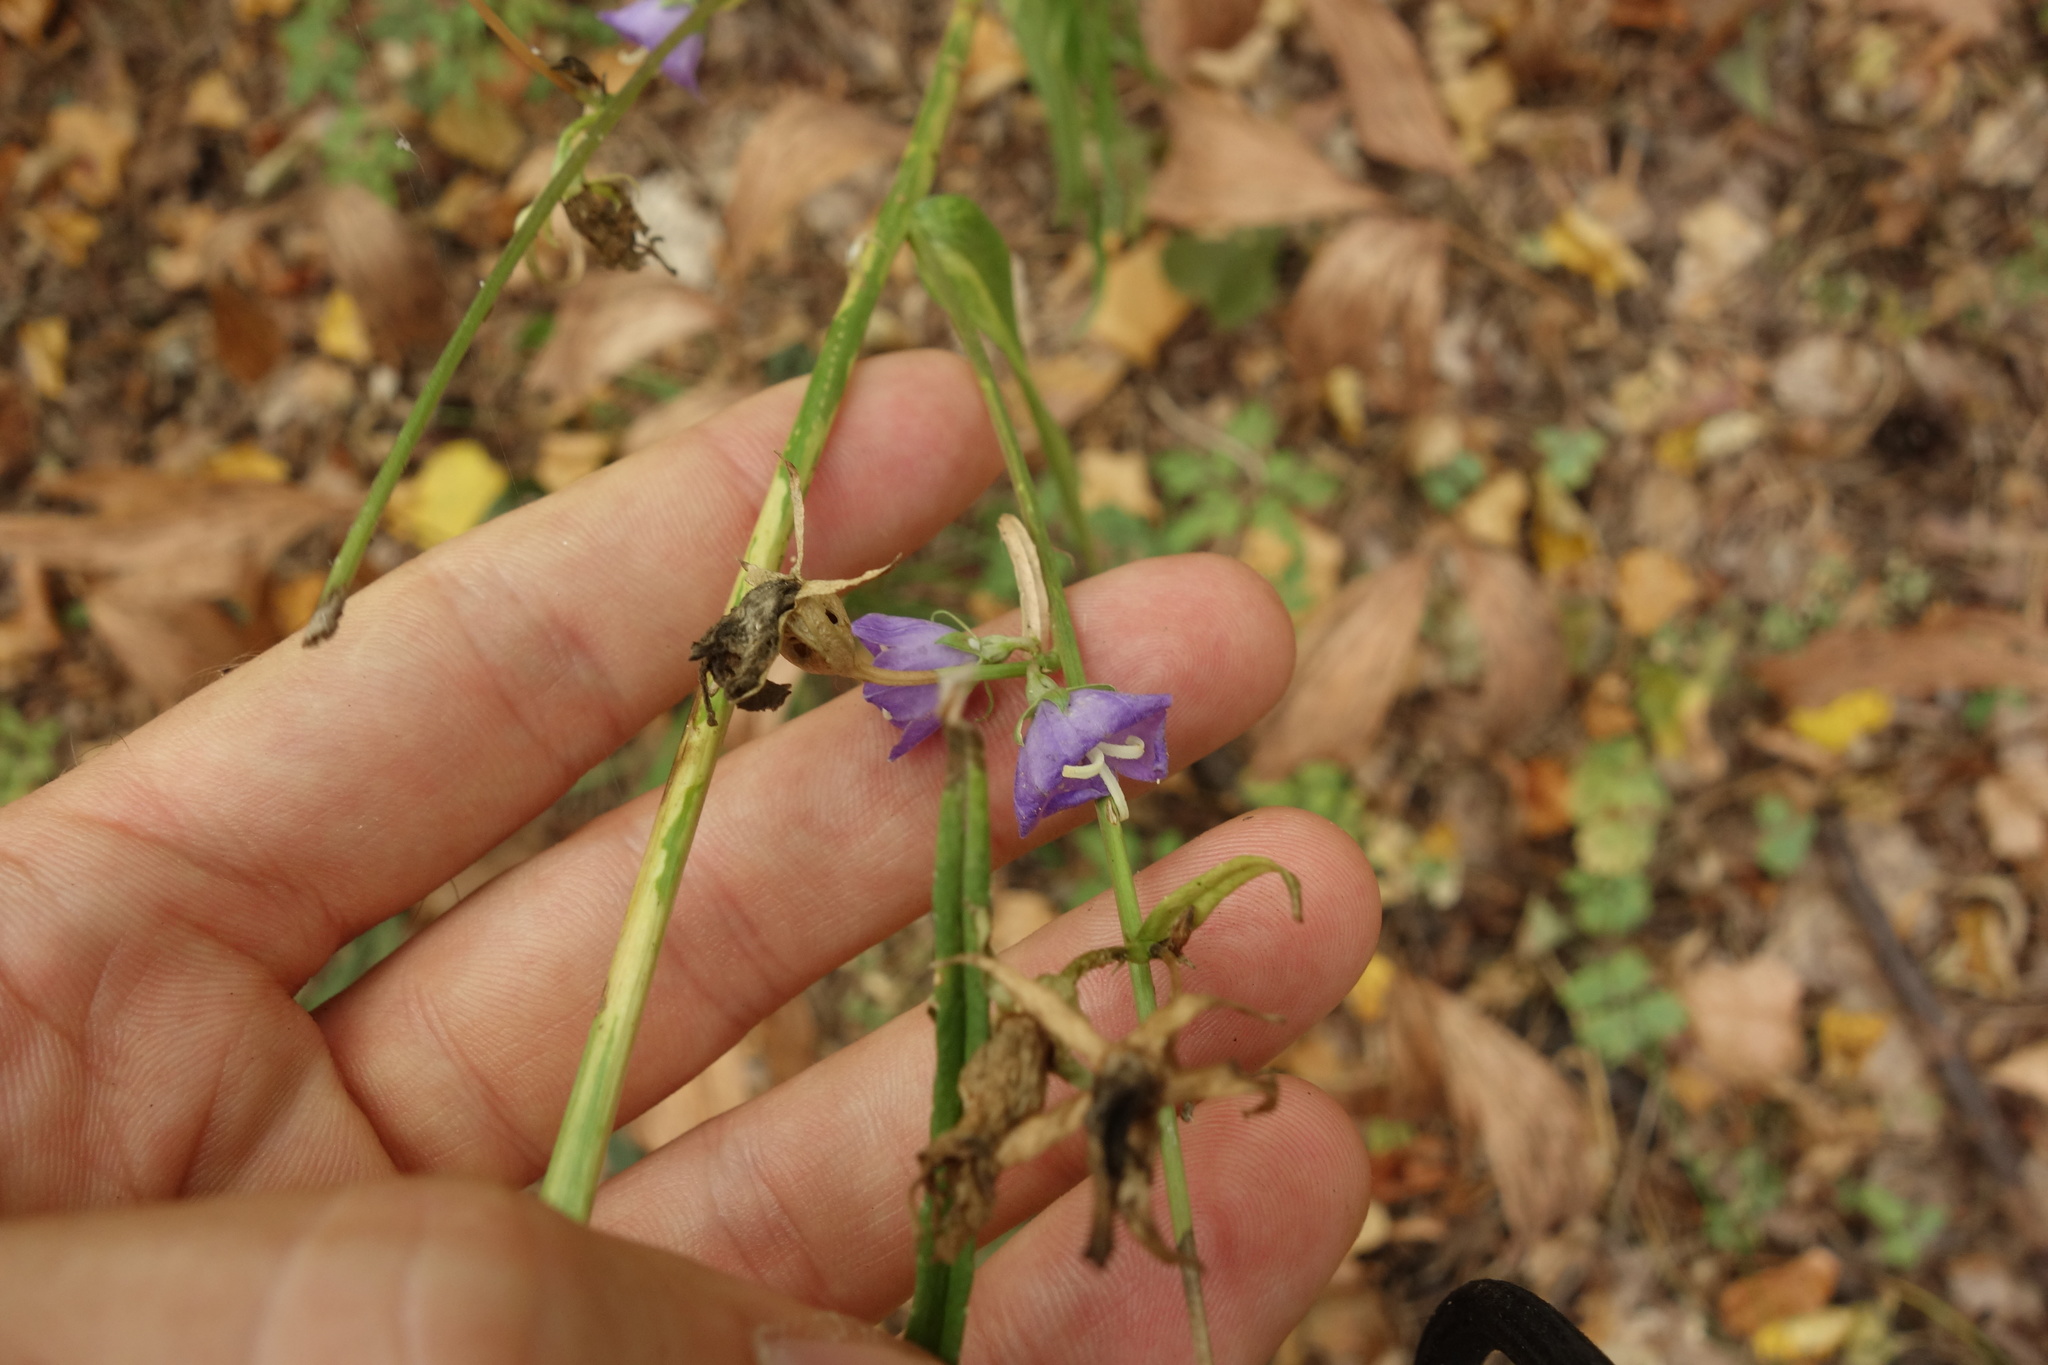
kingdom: Plantae
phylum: Tracheophyta
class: Magnoliopsida
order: Asterales
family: Campanulaceae
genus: Campanula
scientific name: Campanula persicifolia
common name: Peach-leaved bellflower
